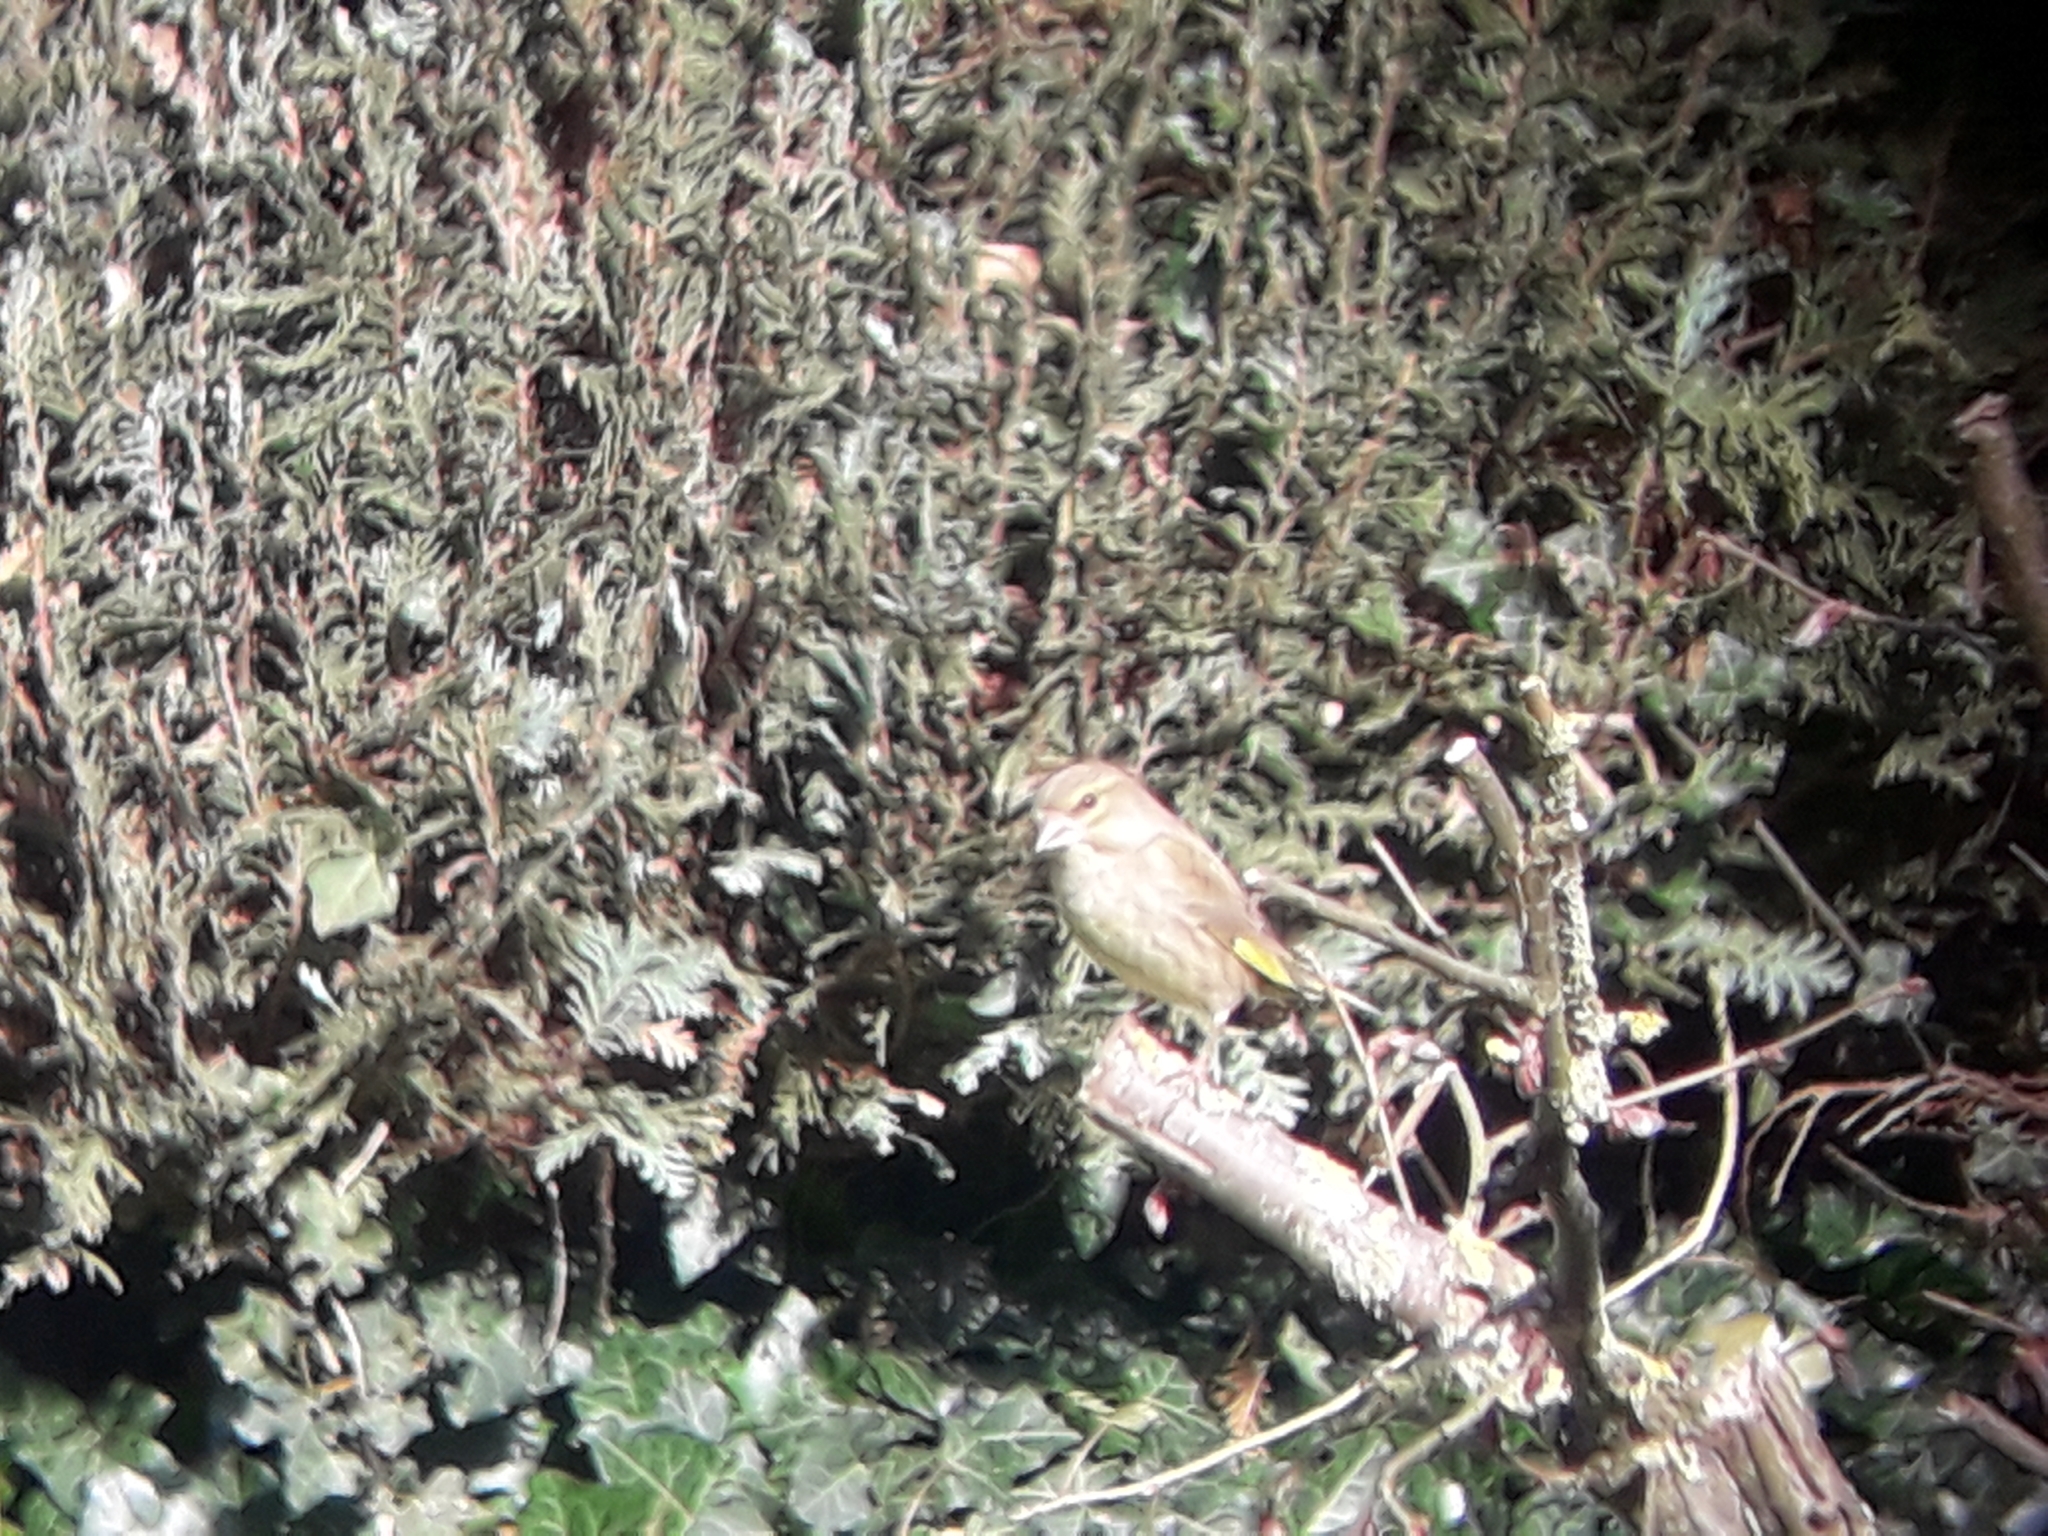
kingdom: Plantae
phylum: Tracheophyta
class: Liliopsida
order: Poales
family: Poaceae
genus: Chloris
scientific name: Chloris chloris
